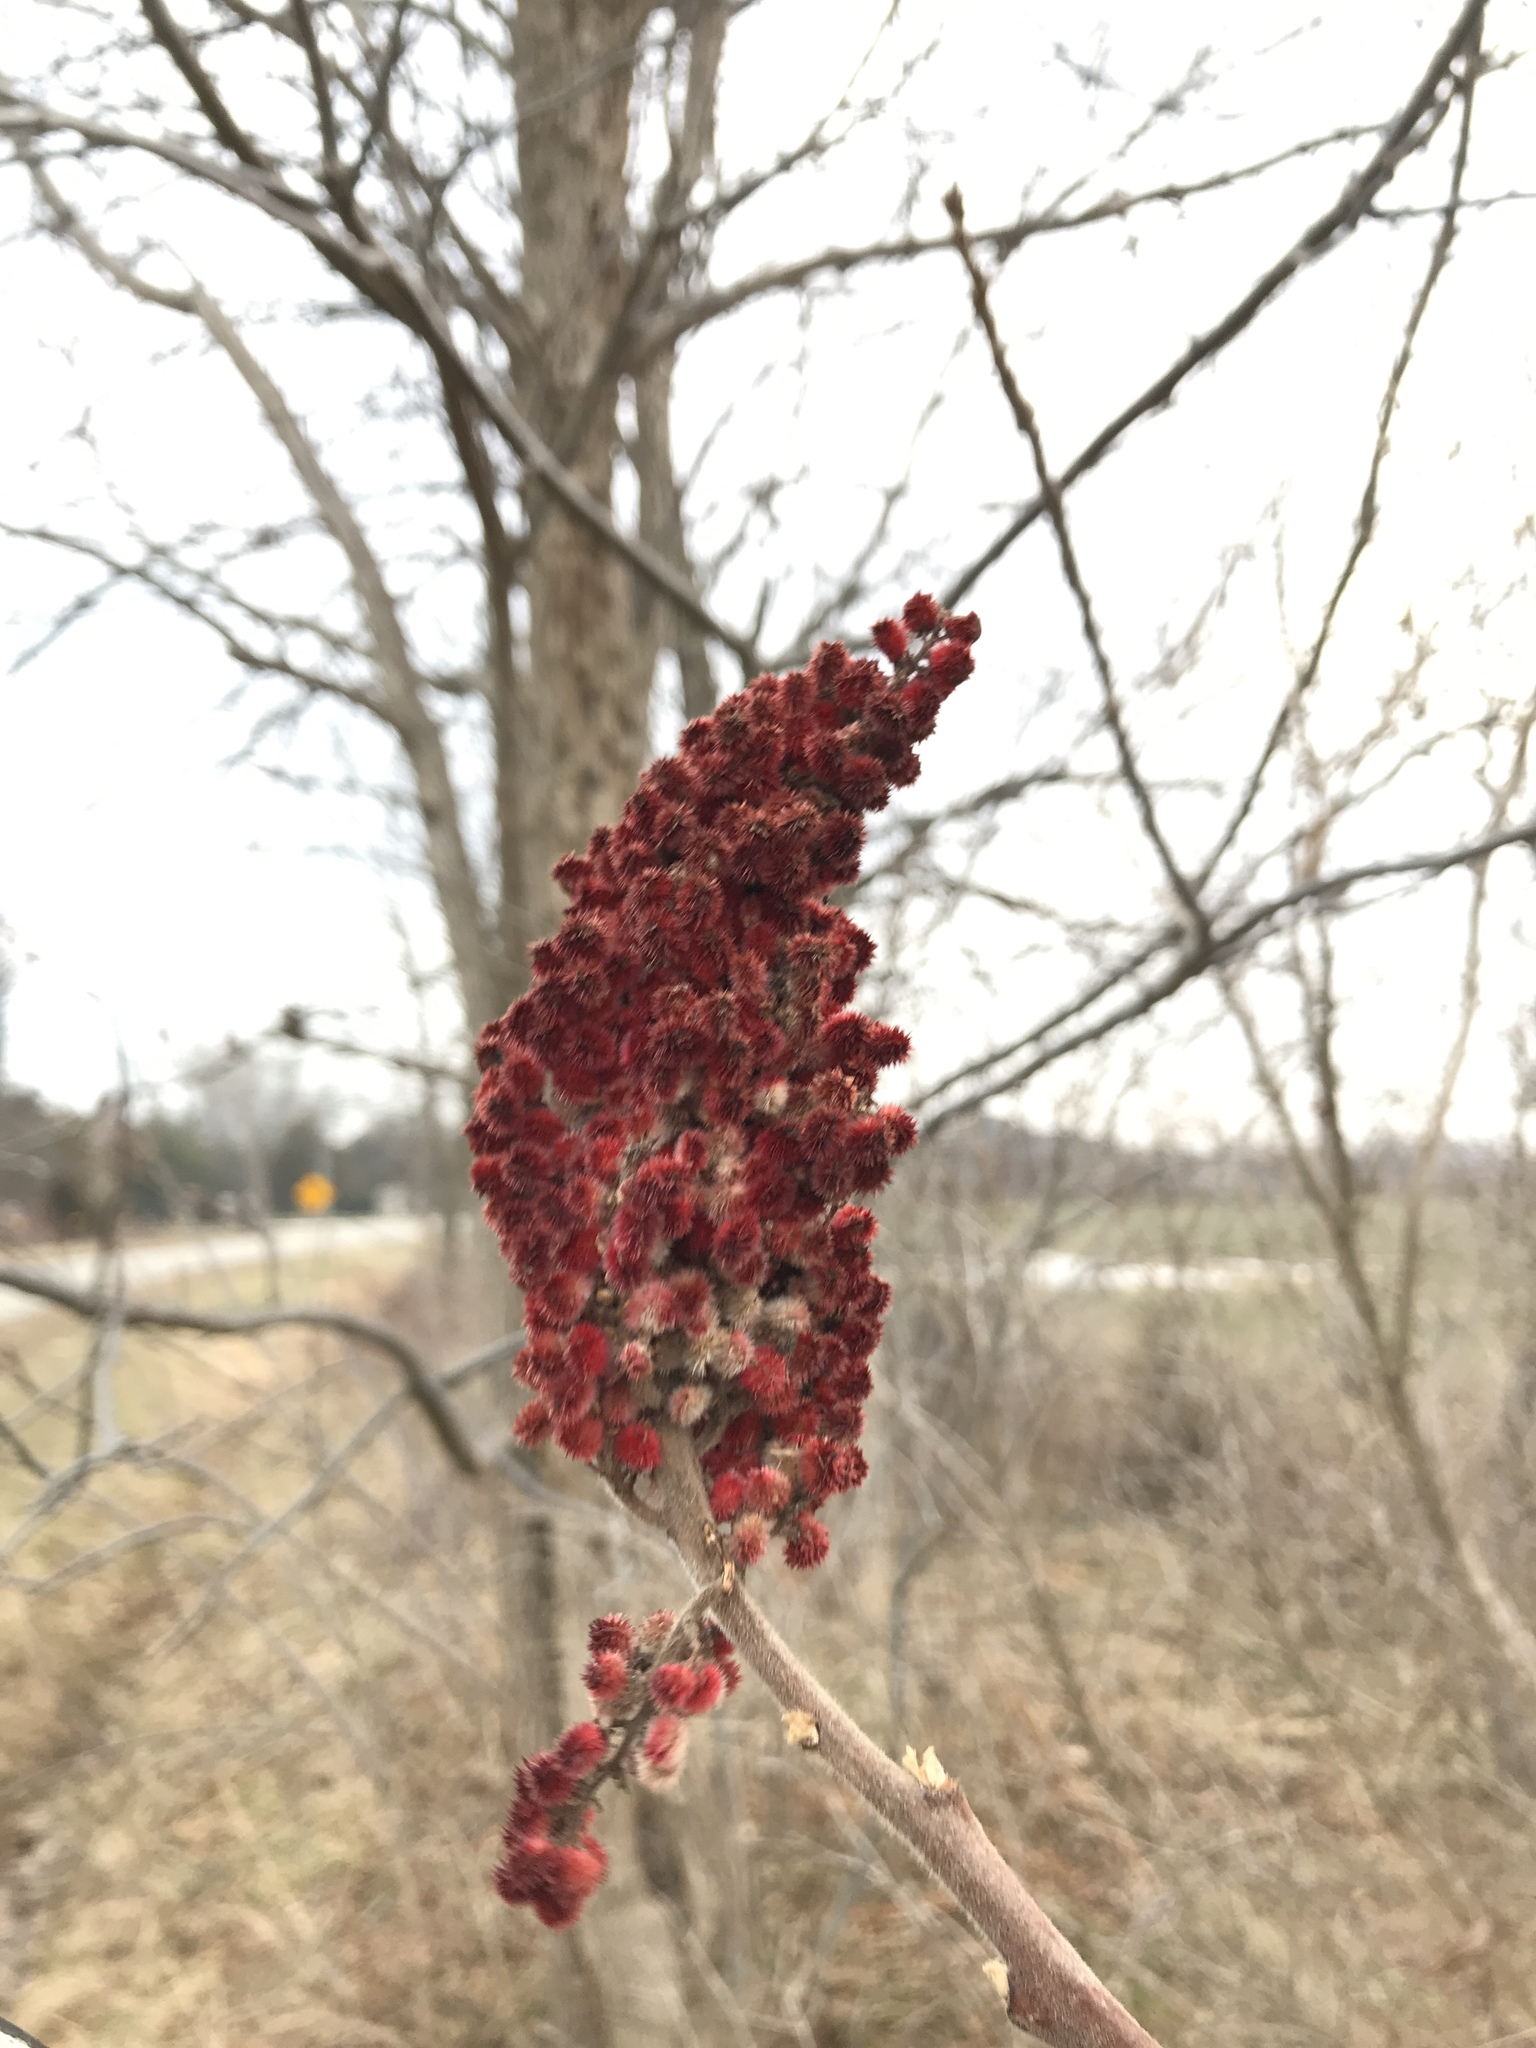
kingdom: Plantae
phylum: Tracheophyta
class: Magnoliopsida
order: Sapindales
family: Anacardiaceae
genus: Rhus
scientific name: Rhus typhina
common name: Staghorn sumac
